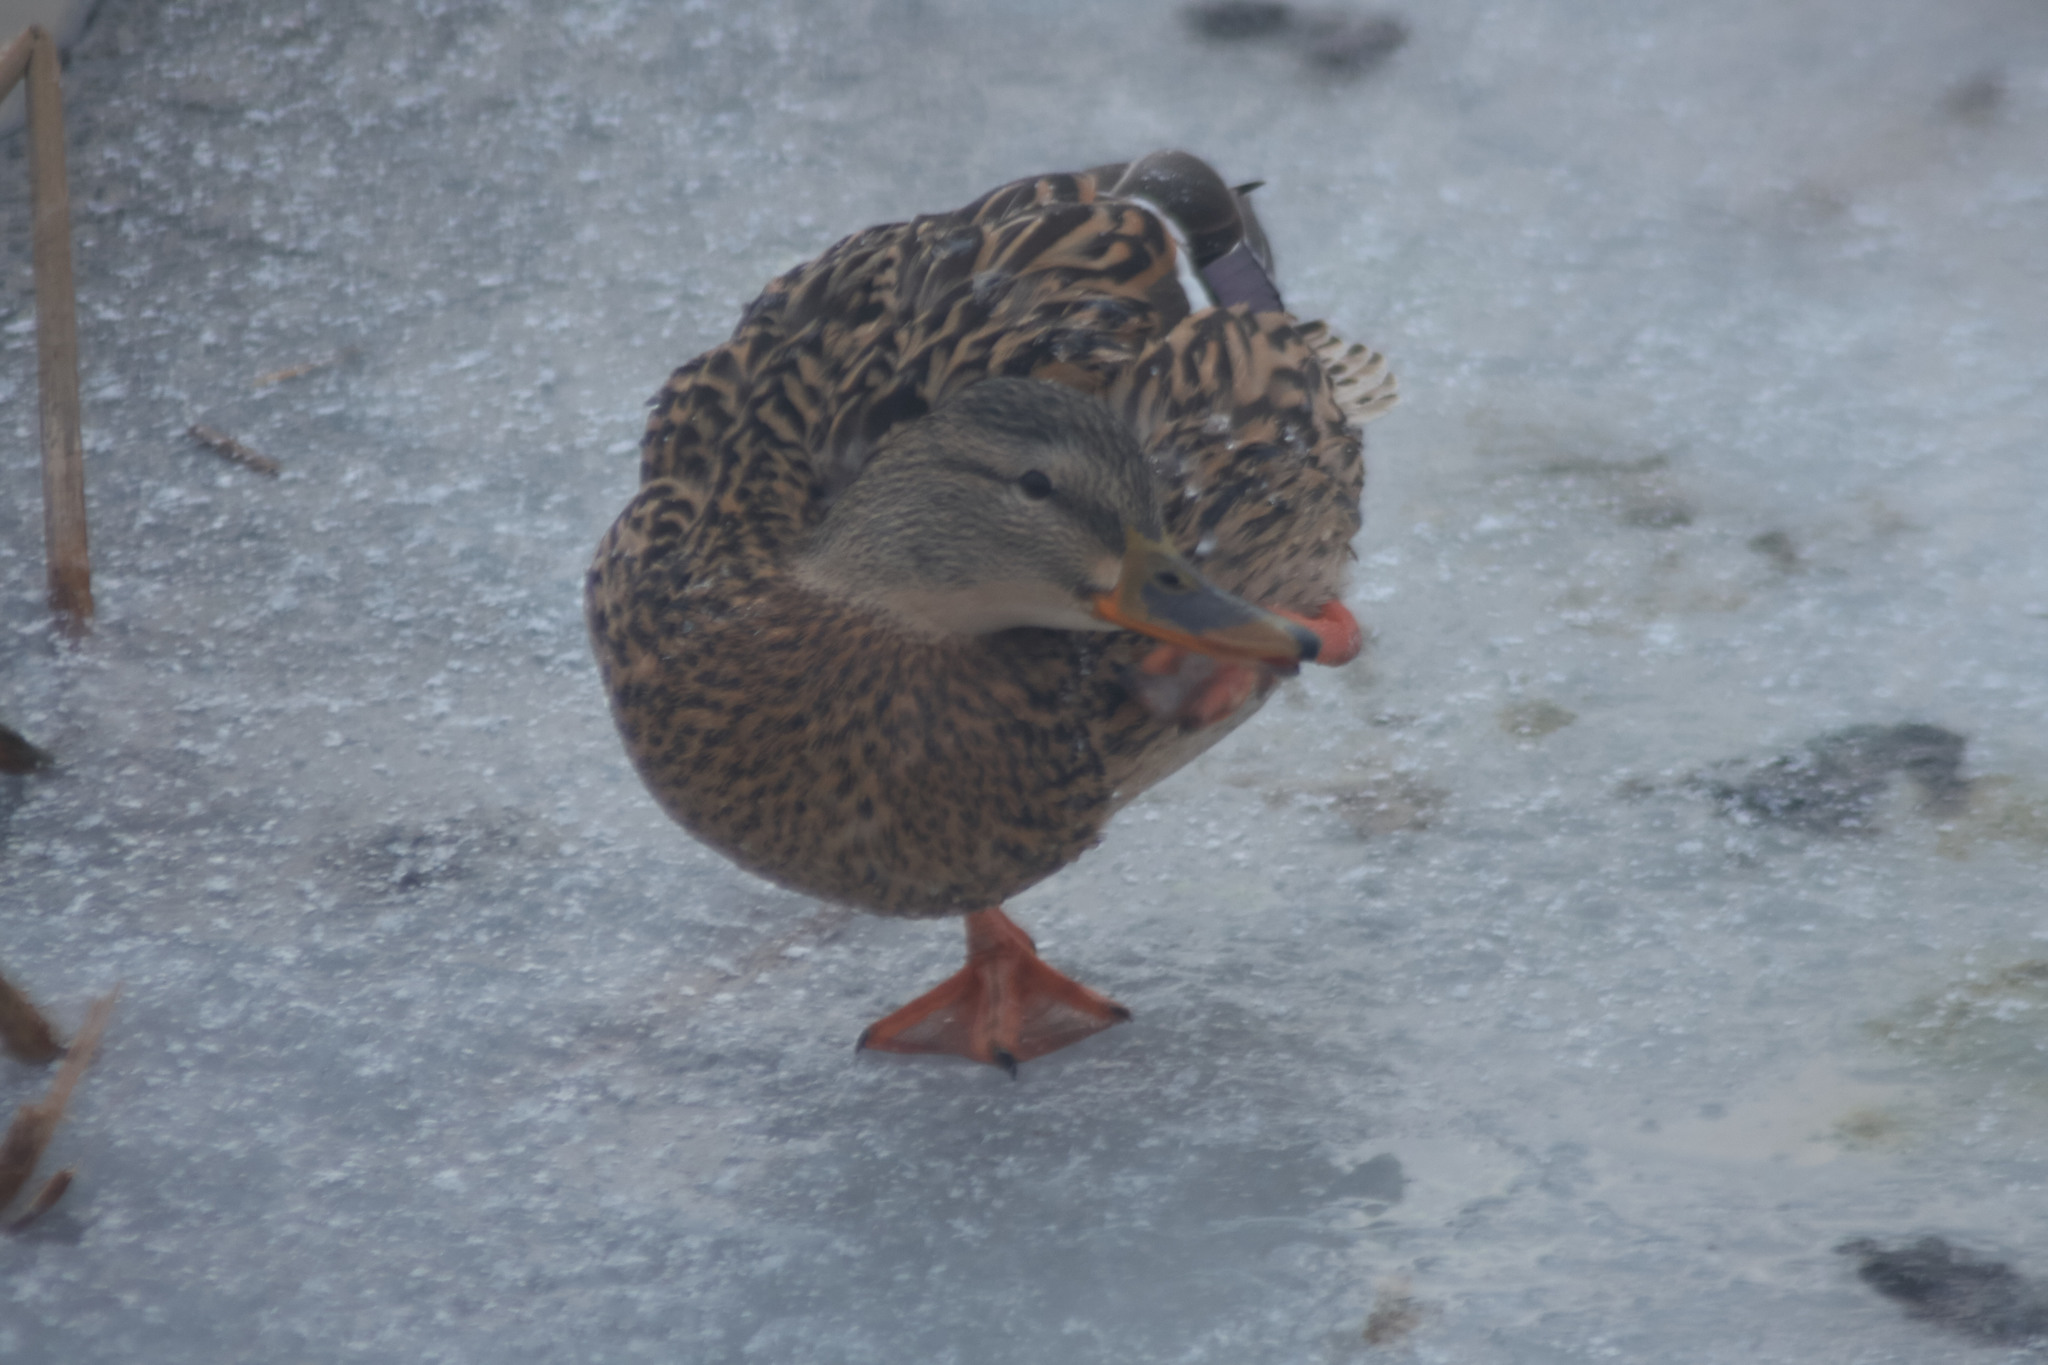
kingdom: Animalia
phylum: Chordata
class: Aves
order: Anseriformes
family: Anatidae
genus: Anas
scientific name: Anas platyrhynchos
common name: Mallard
